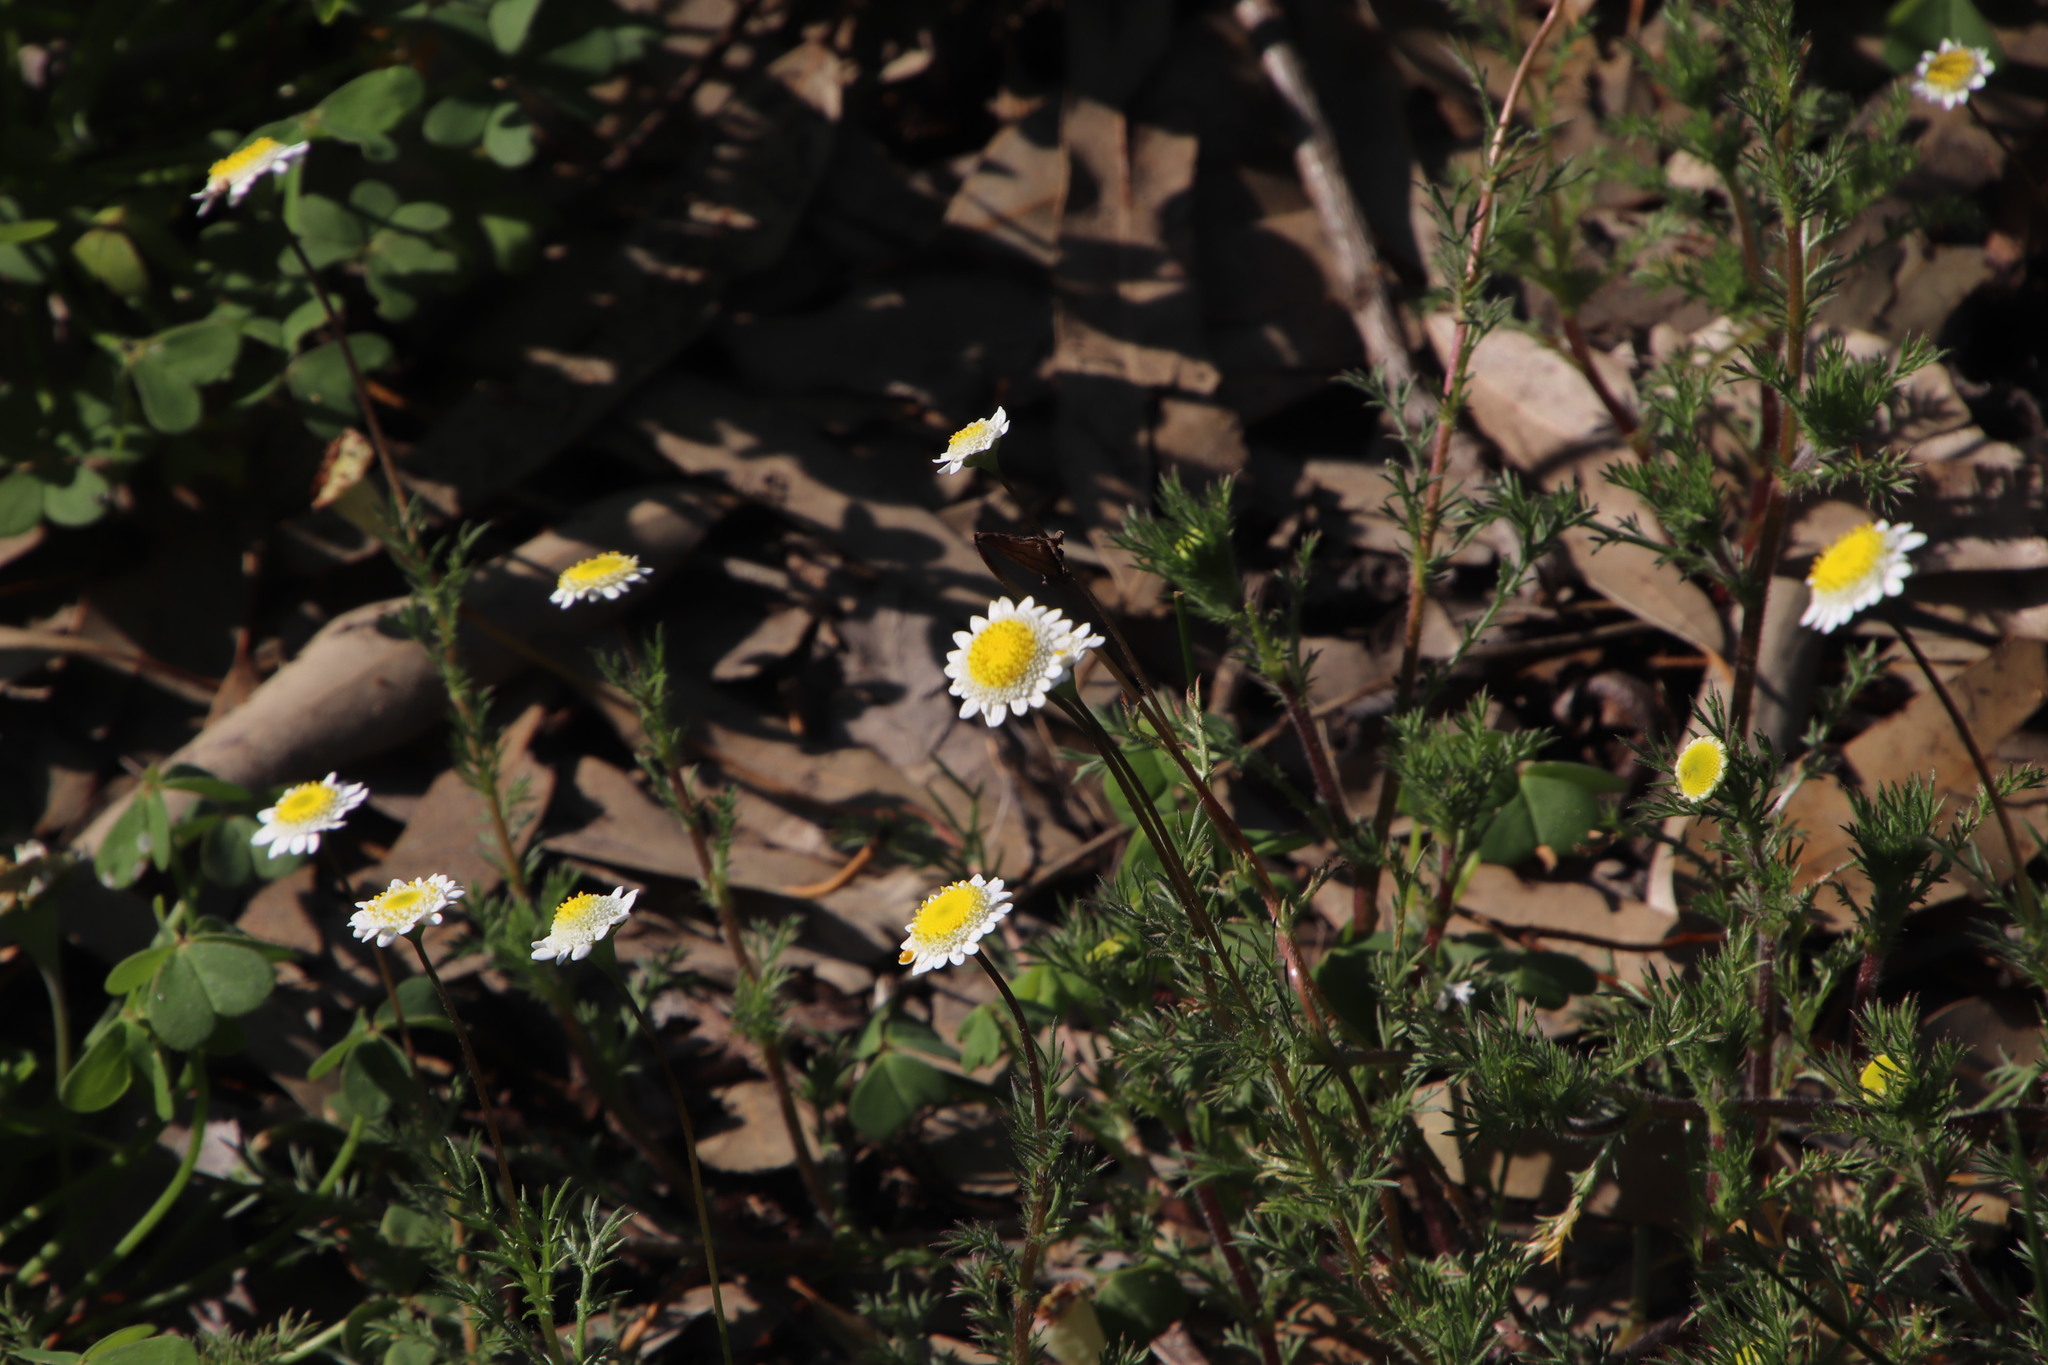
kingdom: Plantae
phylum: Tracheophyta
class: Magnoliopsida
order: Asterales
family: Asteraceae
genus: Cotula
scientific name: Cotula turbinata
